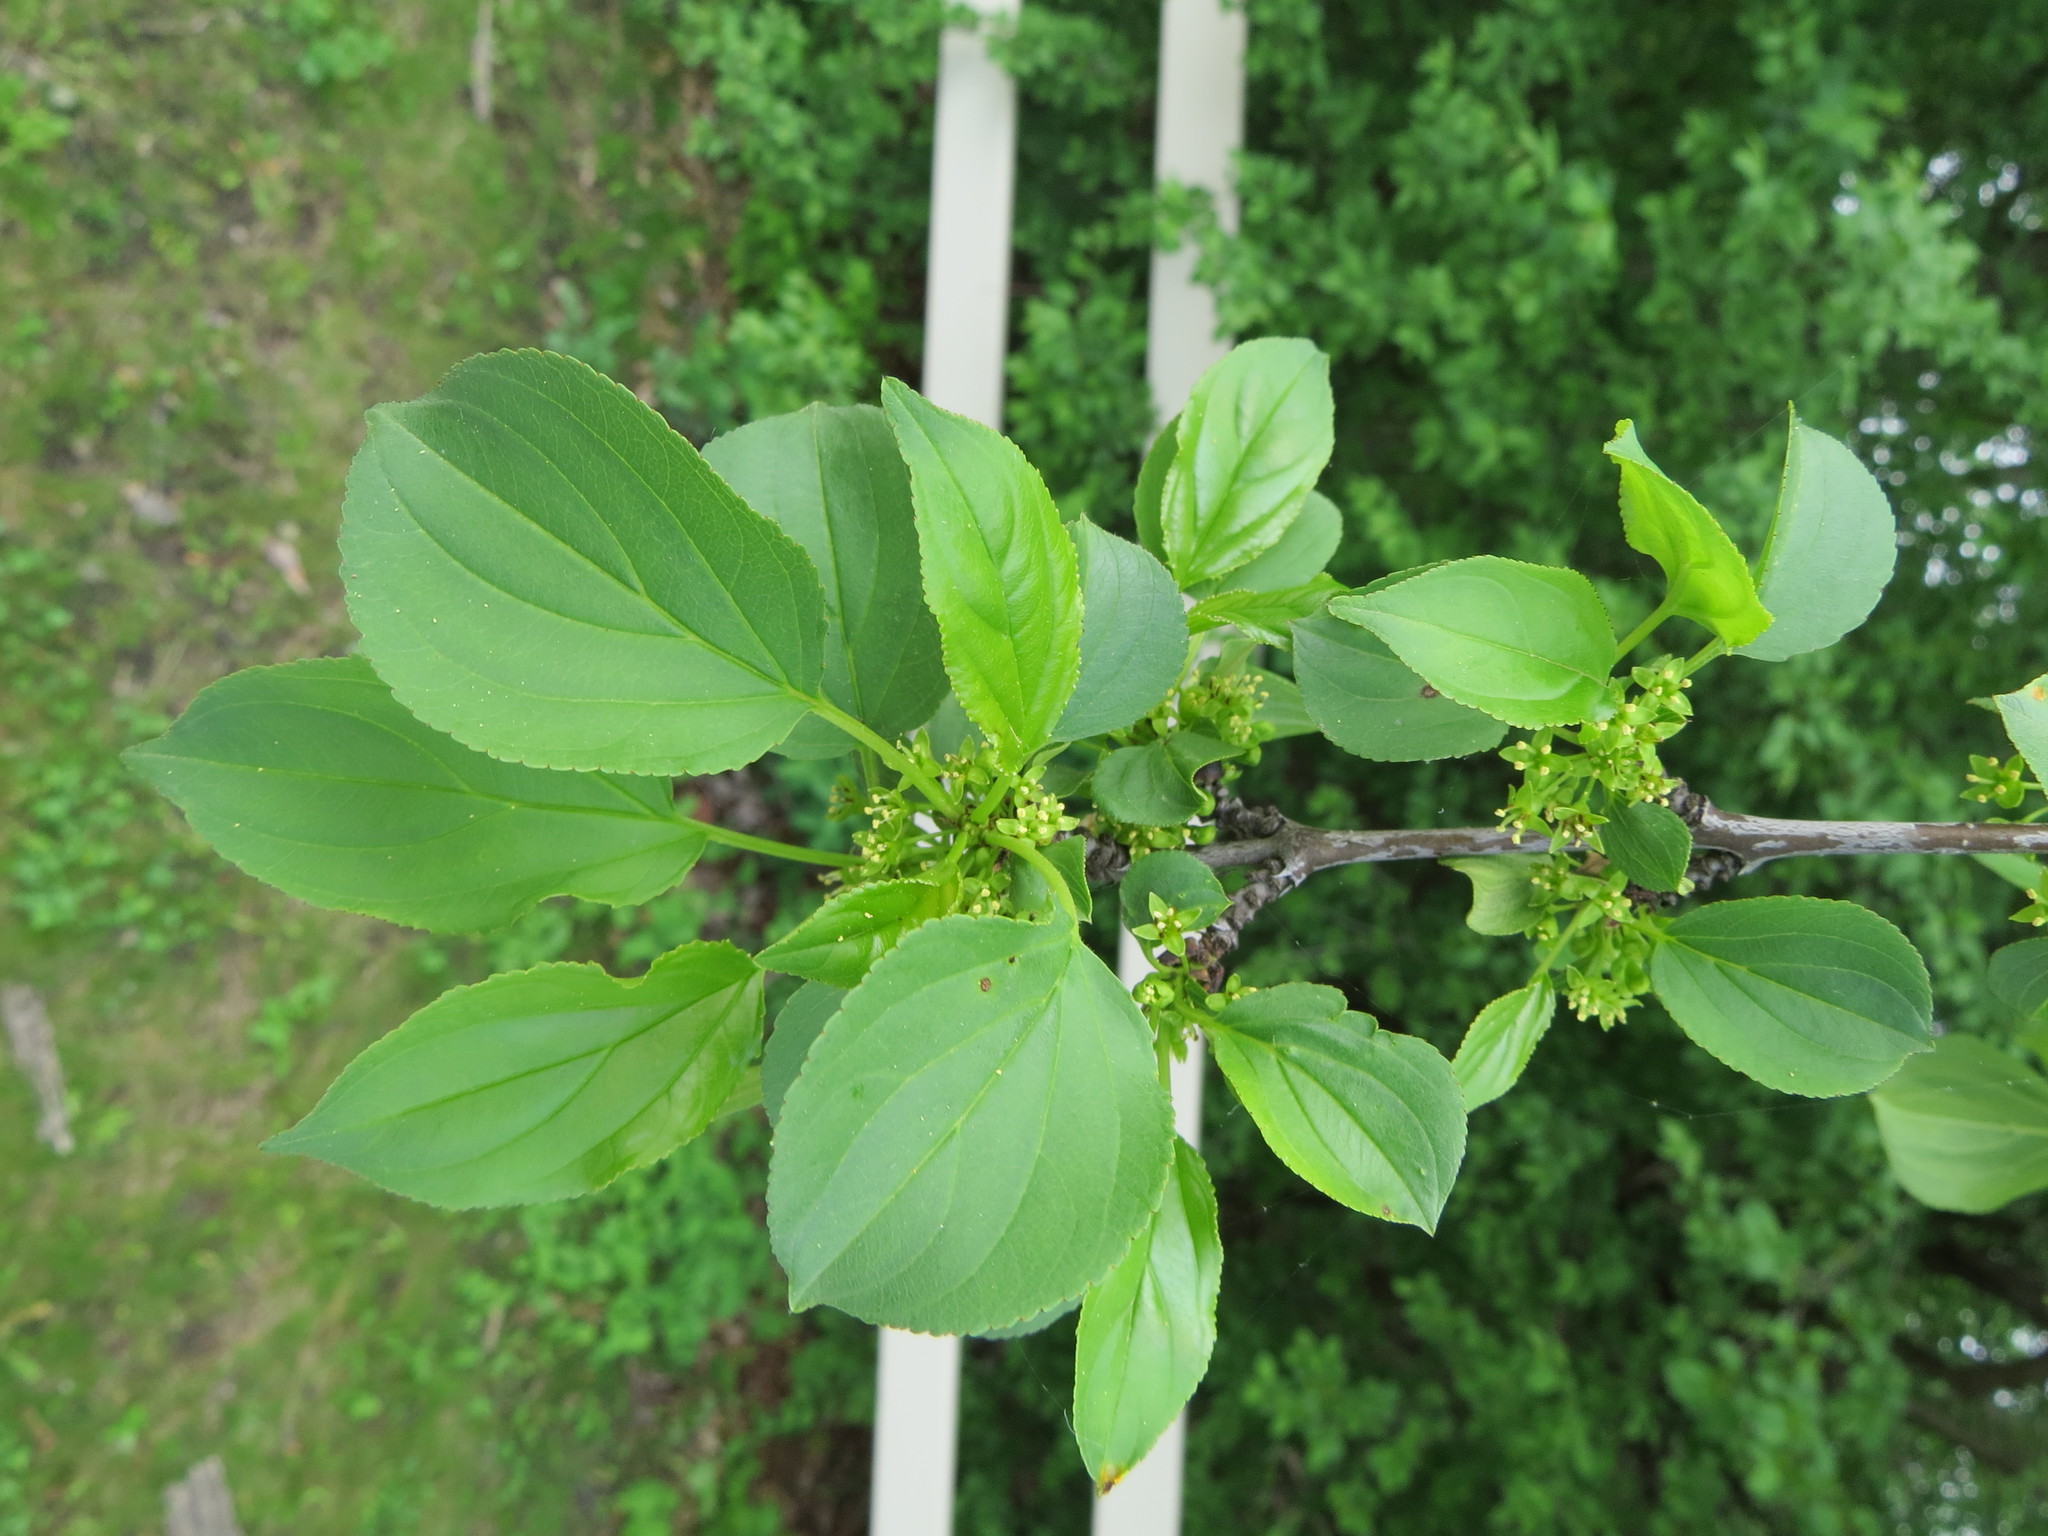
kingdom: Plantae
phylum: Tracheophyta
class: Magnoliopsida
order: Rosales
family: Rhamnaceae
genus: Rhamnus
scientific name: Rhamnus cathartica
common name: Common buckthorn
